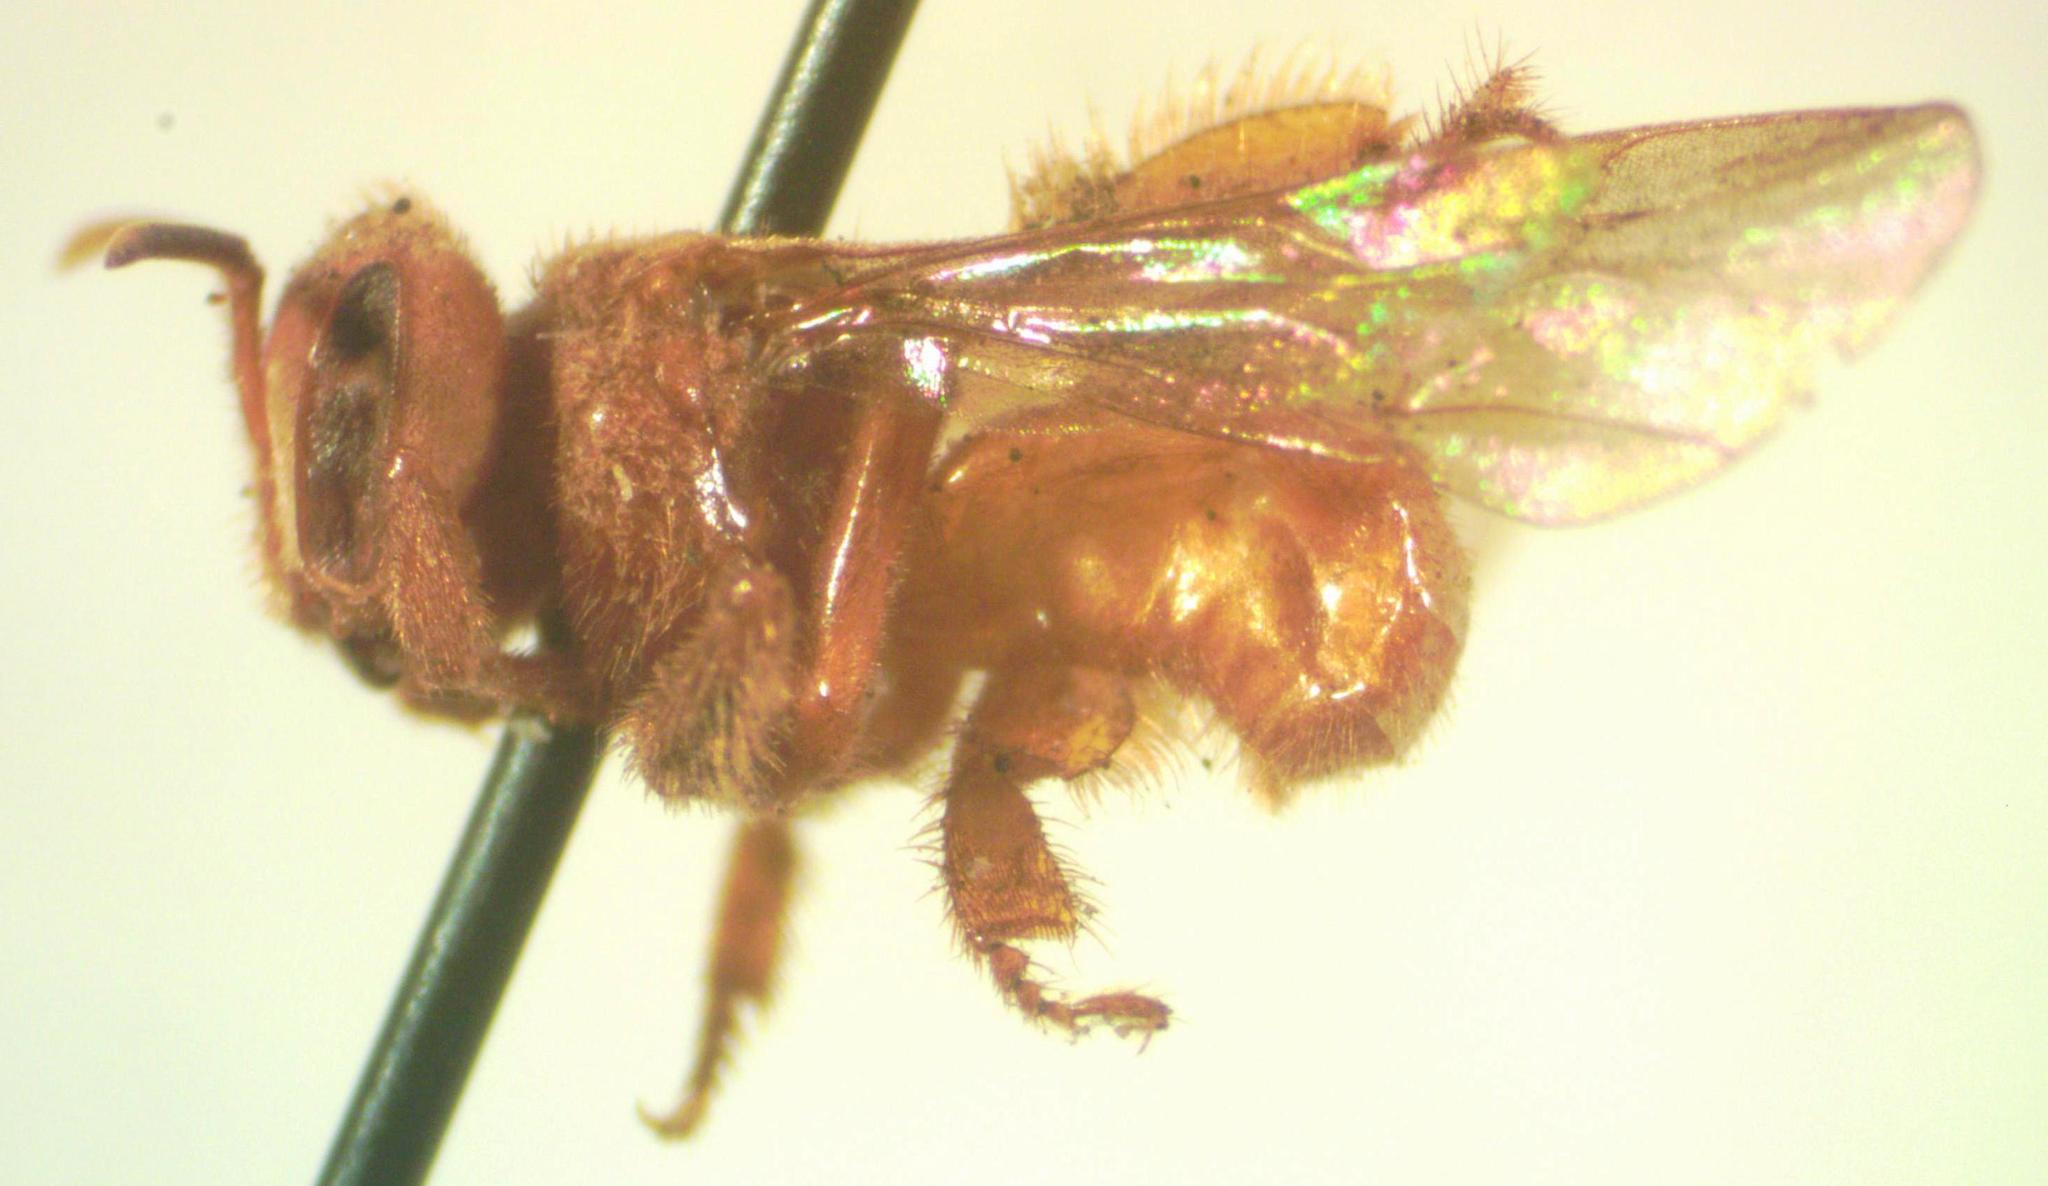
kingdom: Animalia
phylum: Arthropoda
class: Insecta
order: Hymenoptera
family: Apidae
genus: Trigona
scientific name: Trigona muzoensis
